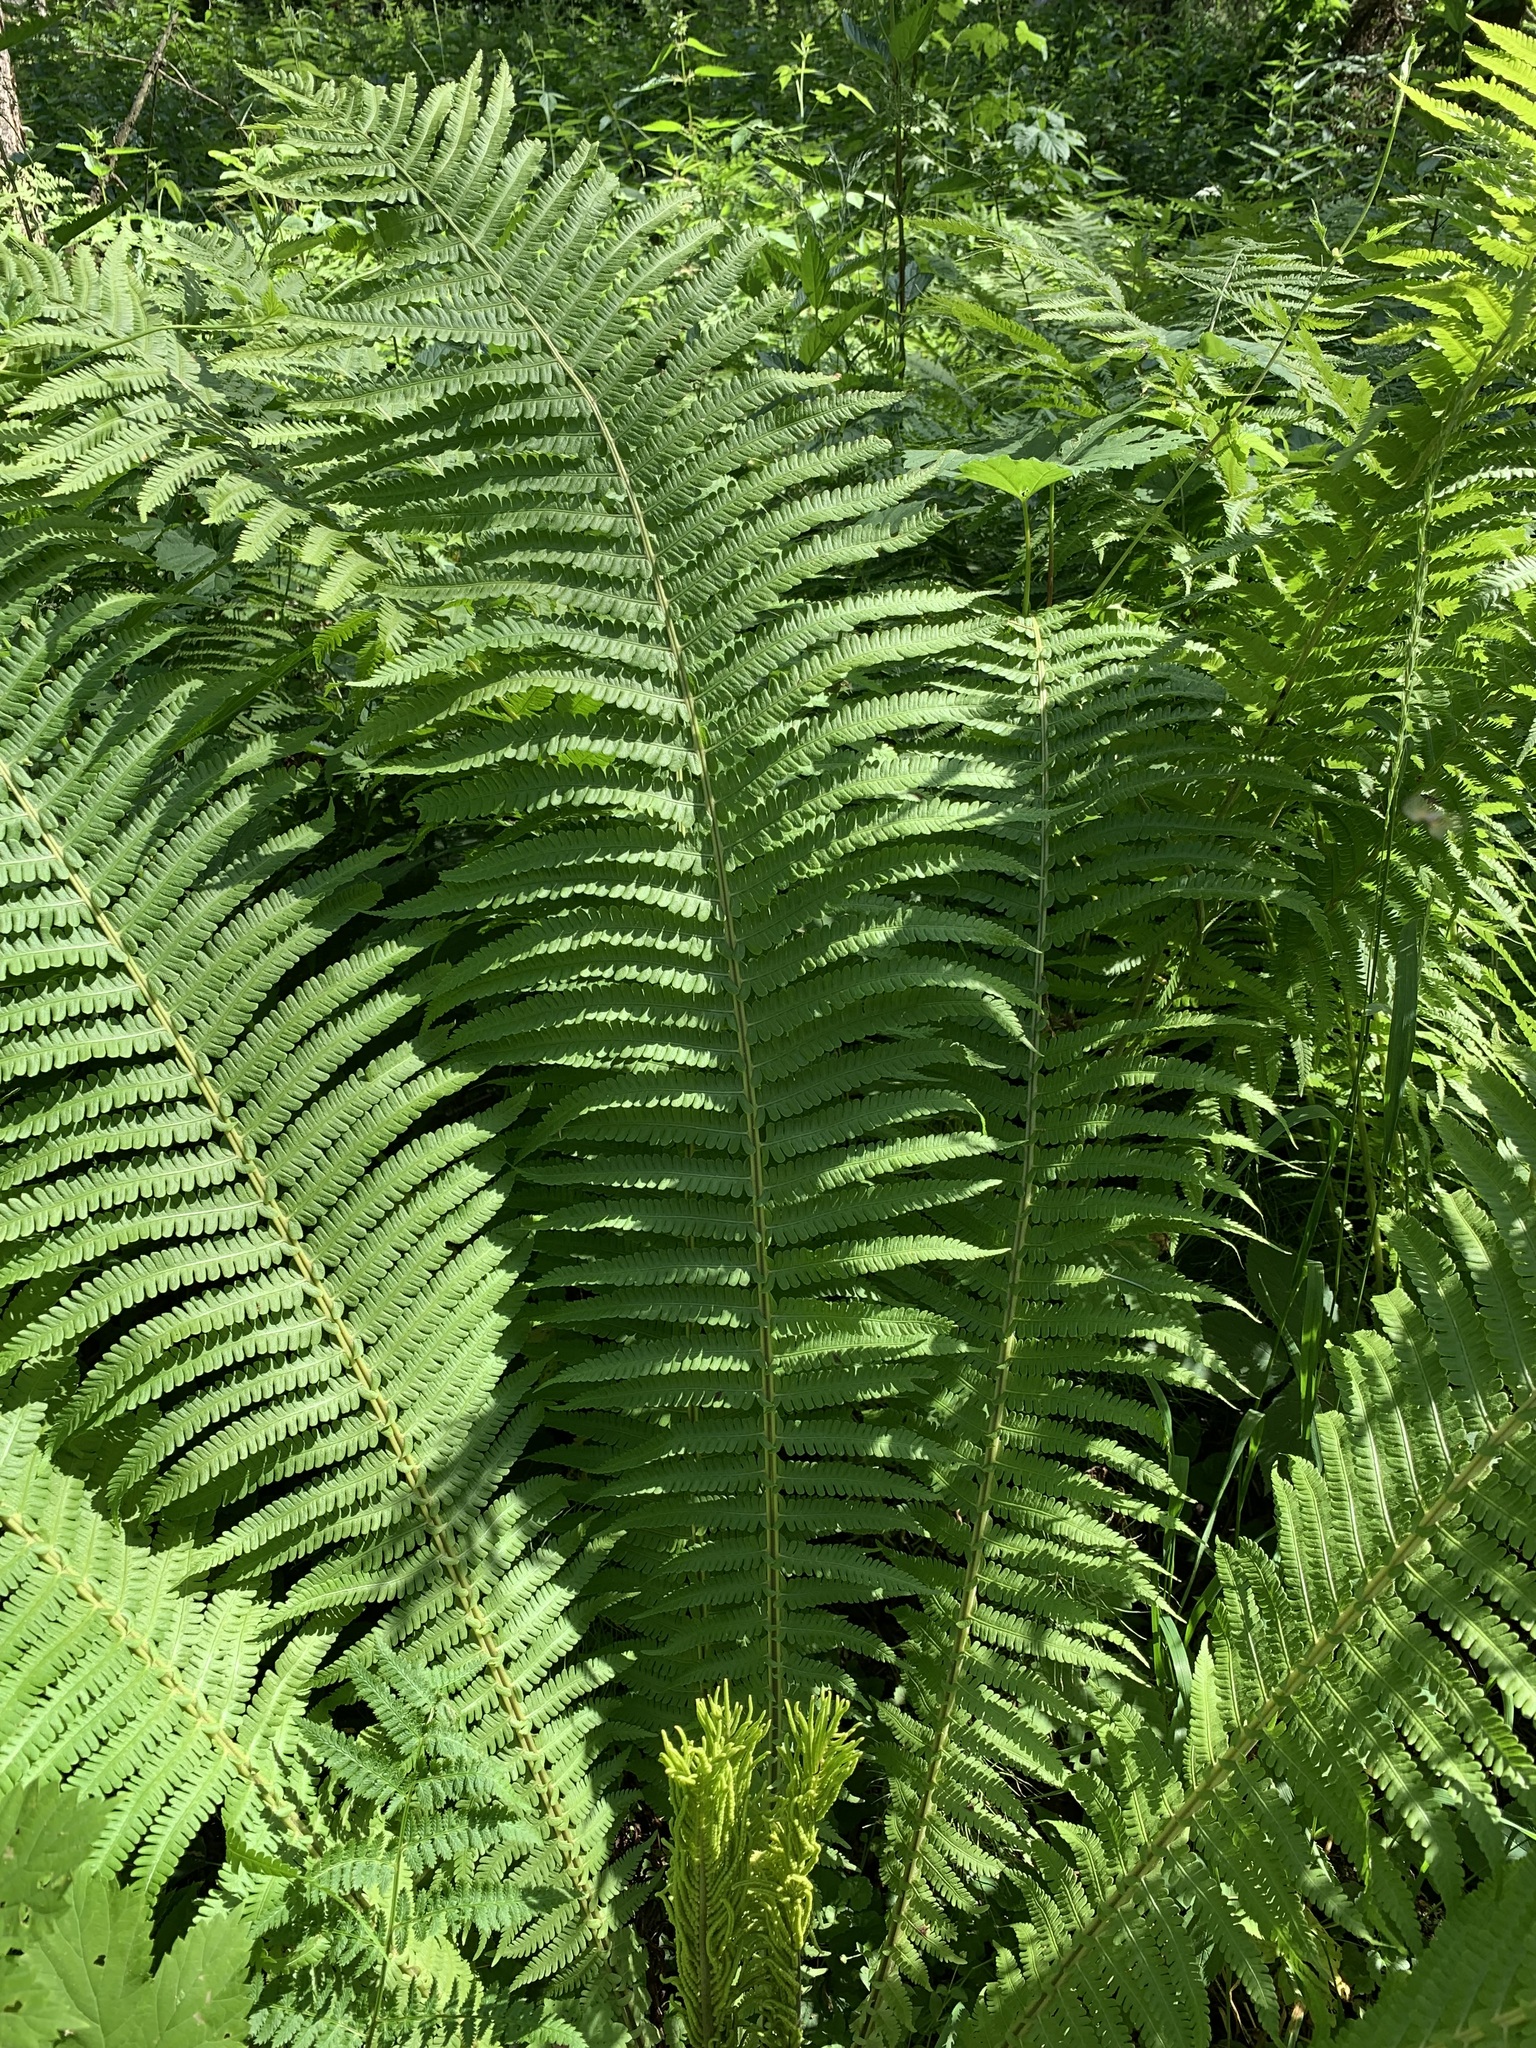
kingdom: Plantae
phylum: Tracheophyta
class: Polypodiopsida
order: Polypodiales
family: Onocleaceae
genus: Matteuccia
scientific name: Matteuccia struthiopteris
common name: Ostrich fern
